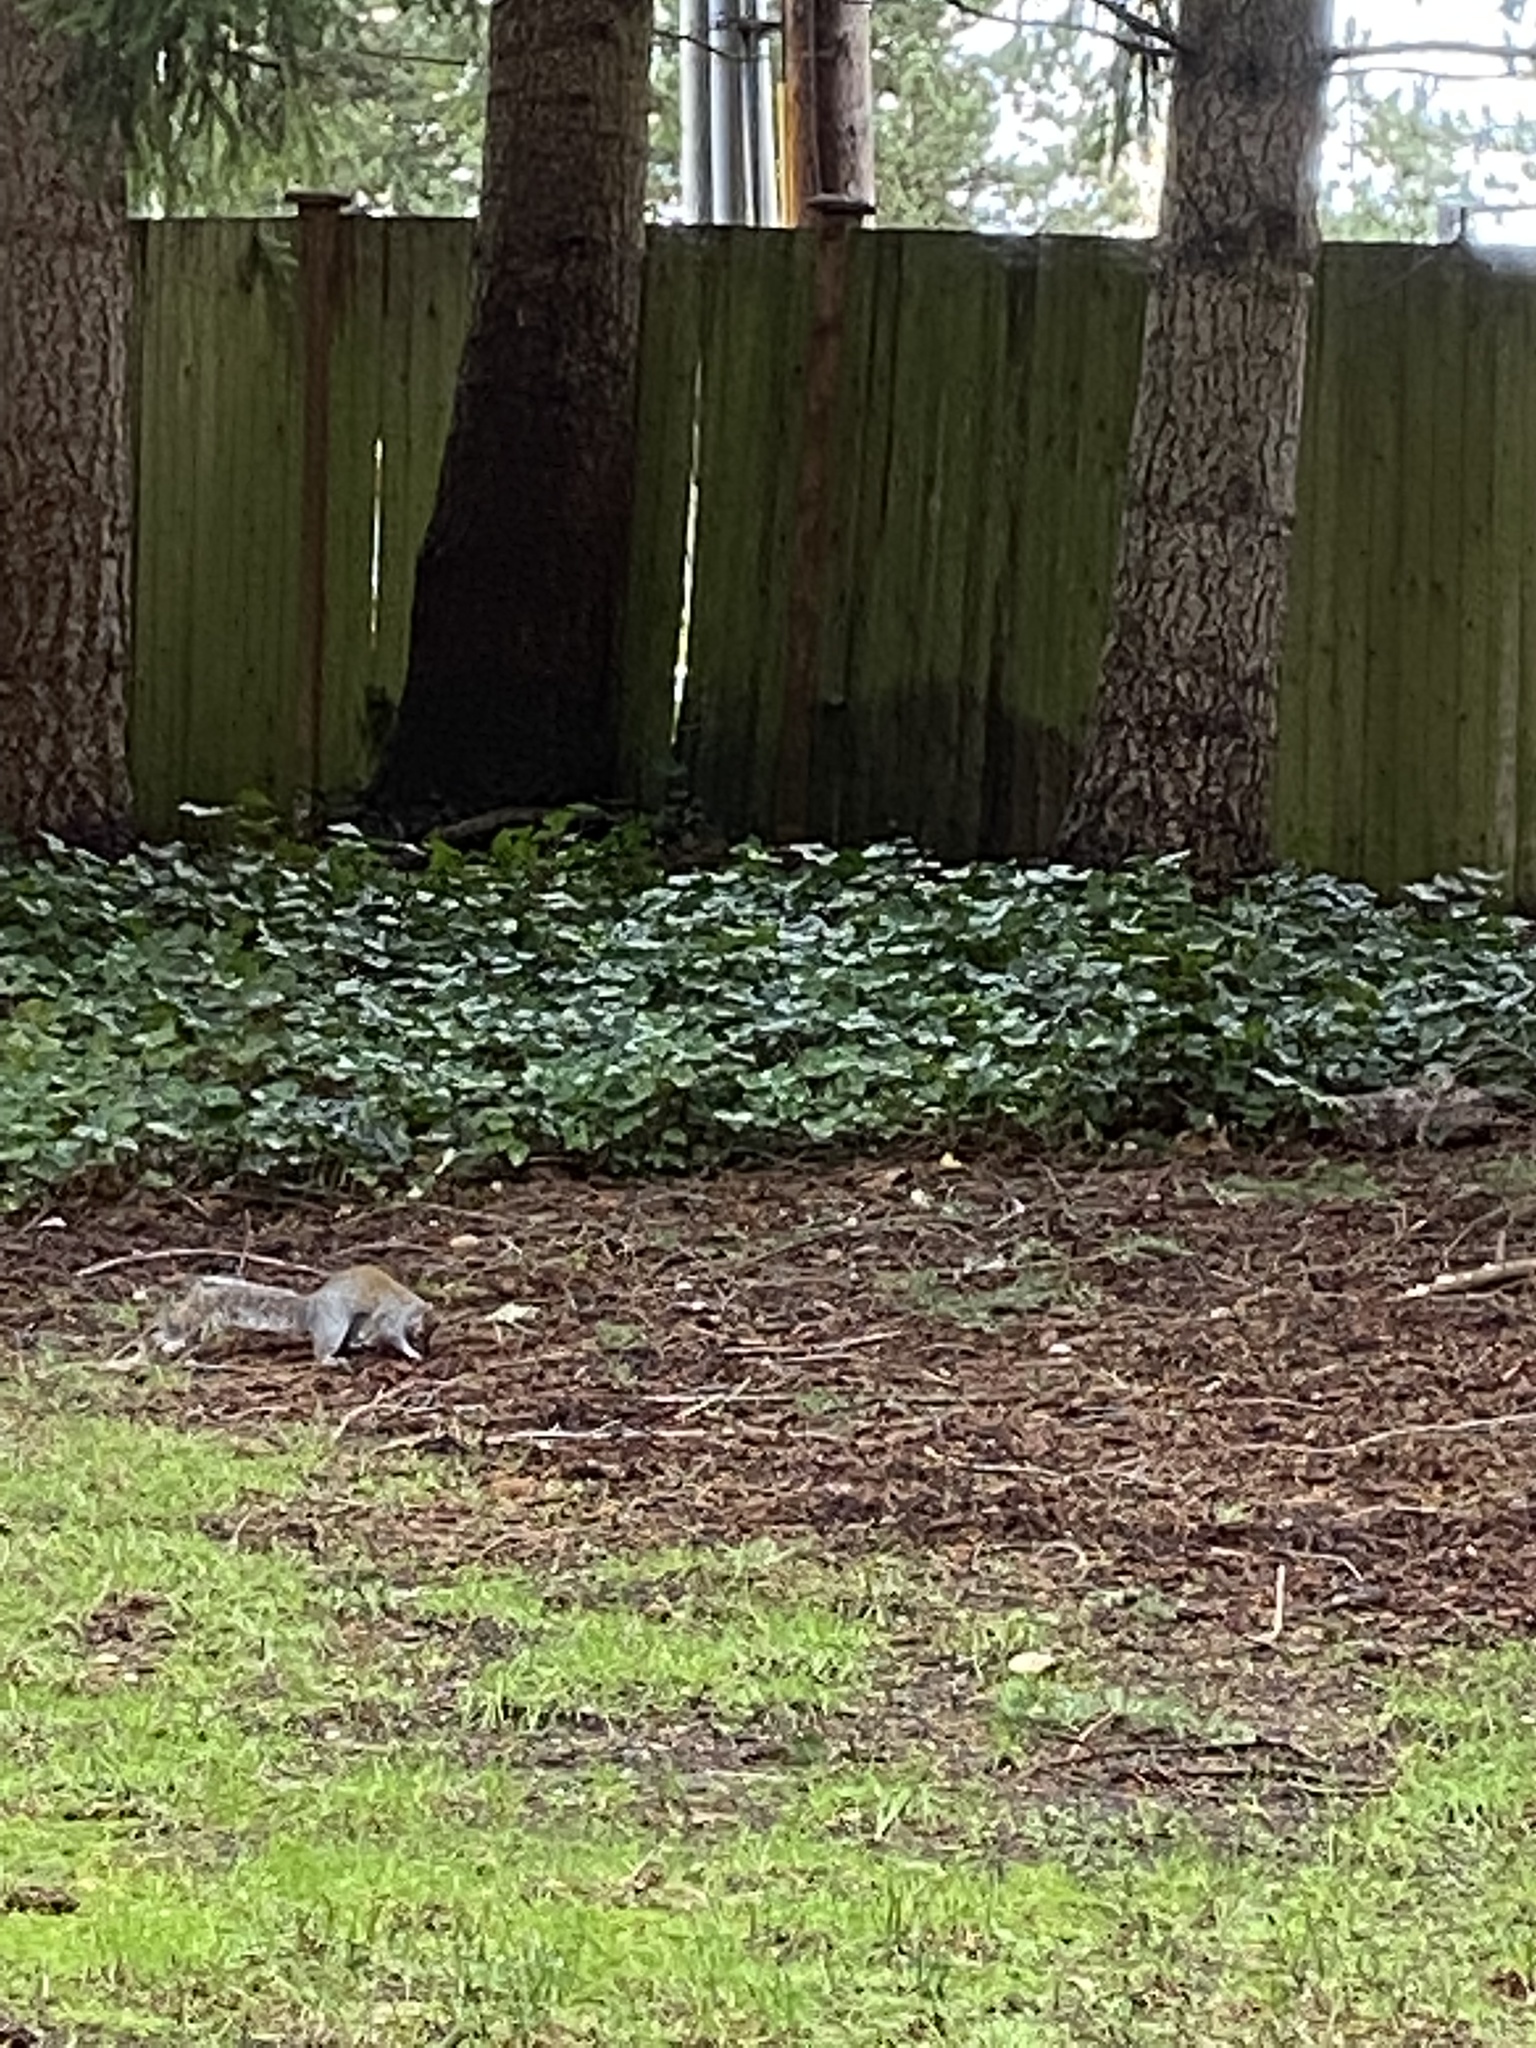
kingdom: Animalia
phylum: Chordata
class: Mammalia
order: Rodentia
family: Sciuridae
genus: Sciurus
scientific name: Sciurus carolinensis
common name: Eastern gray squirrel
